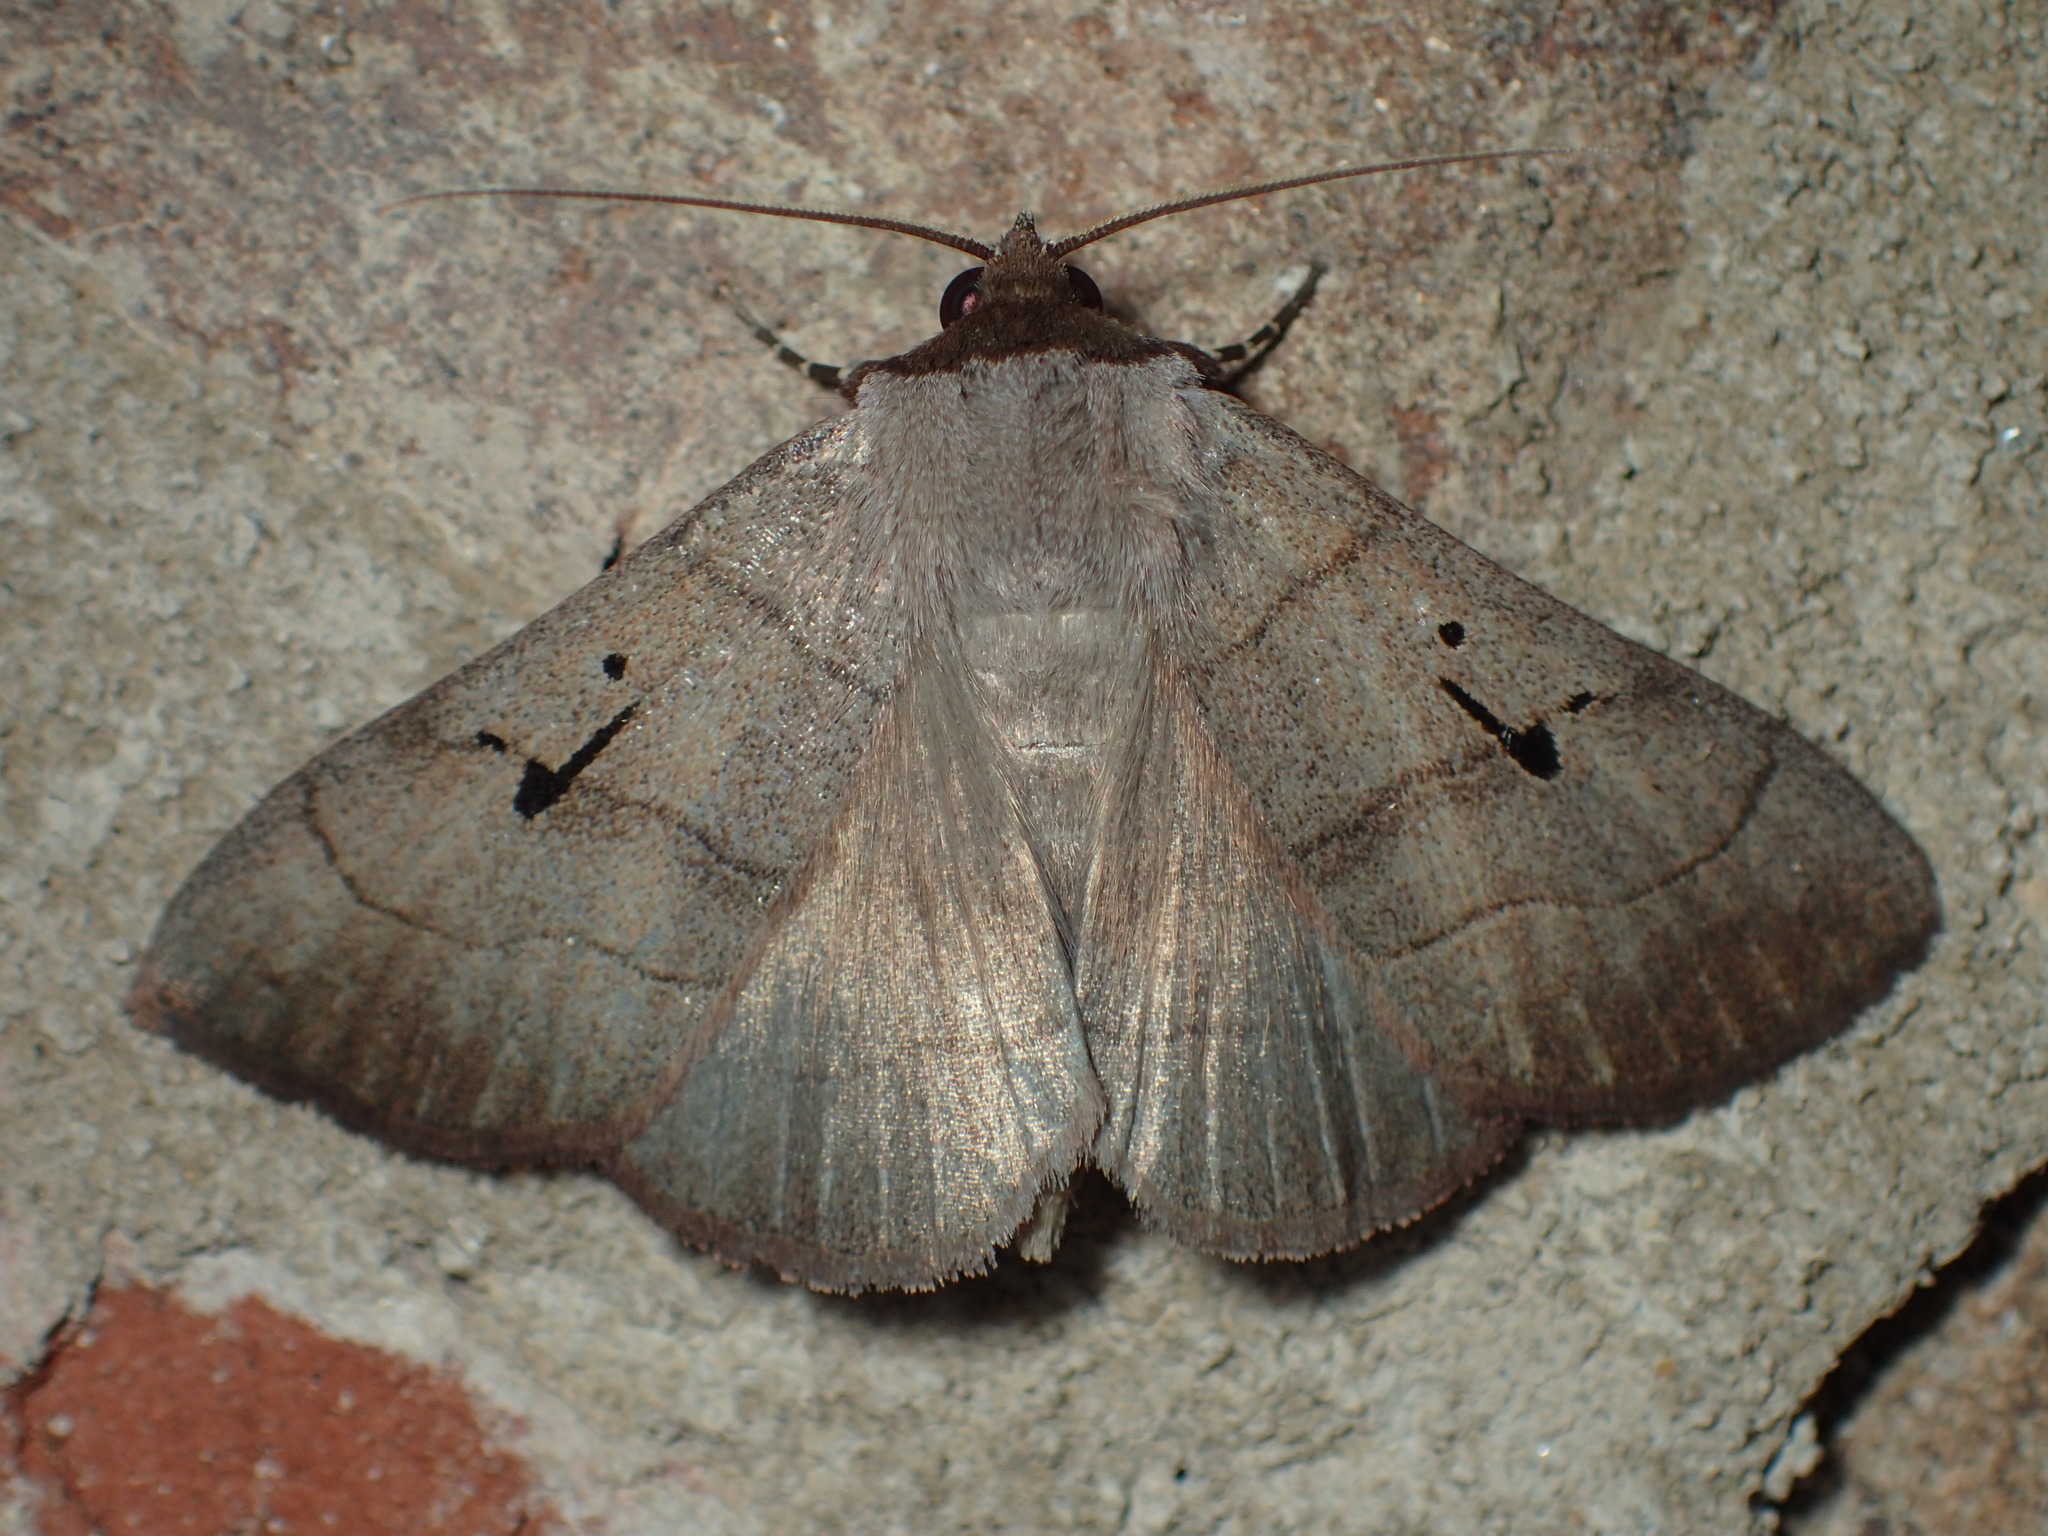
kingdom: Animalia
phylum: Arthropoda
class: Insecta
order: Lepidoptera
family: Erebidae
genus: Panopoda
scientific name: Panopoda carneicosta
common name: Brown panopoda moth
